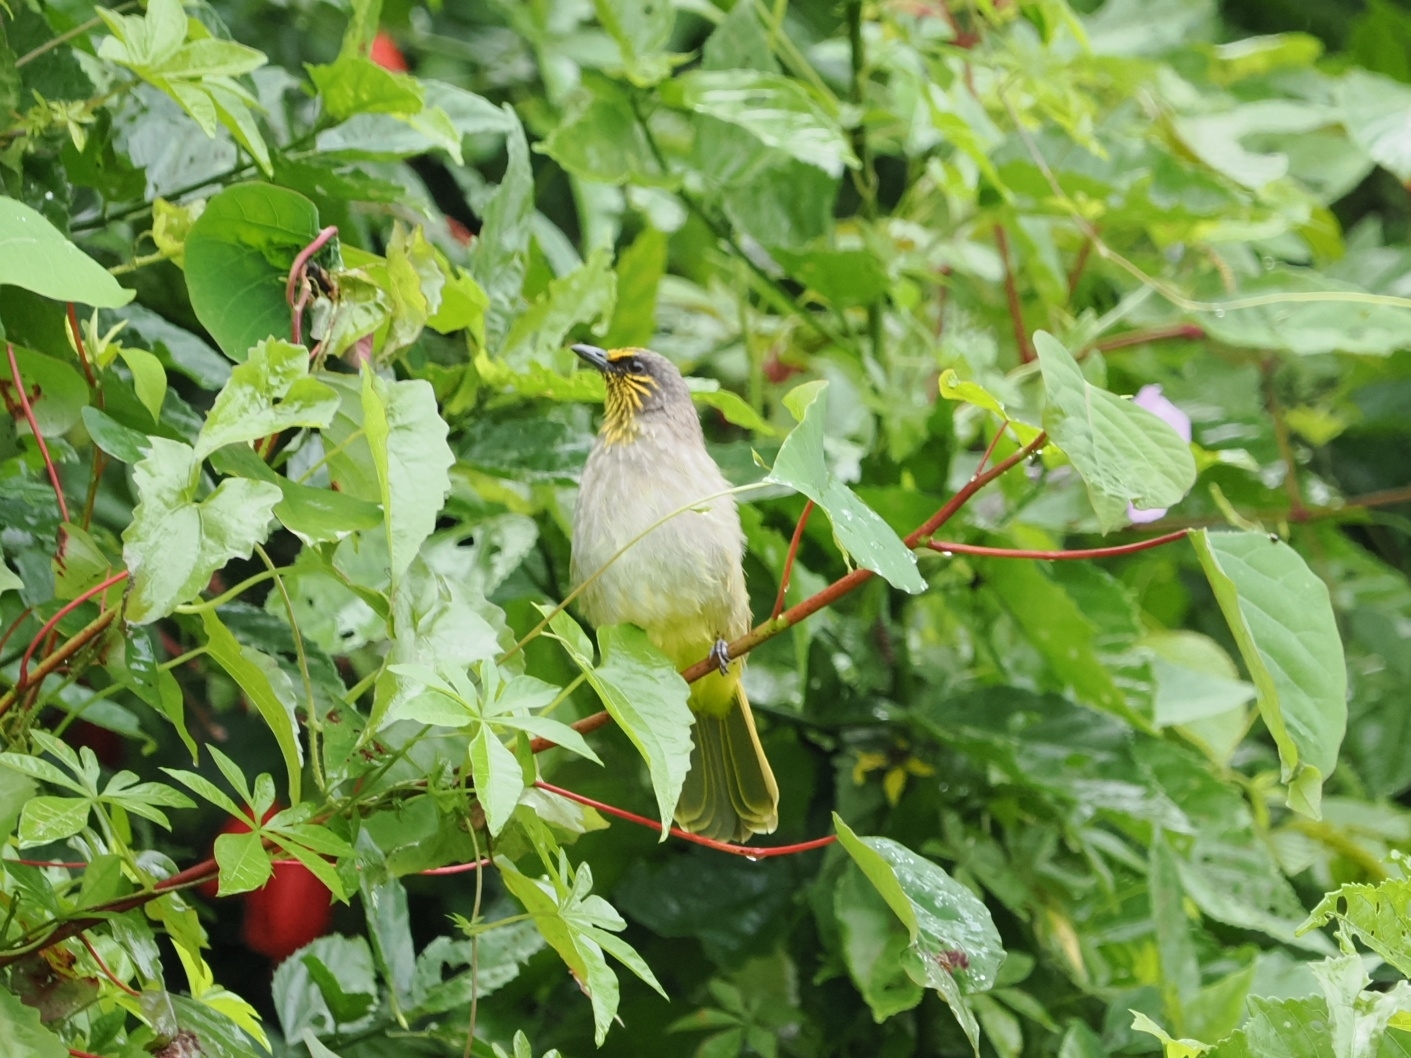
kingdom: Animalia
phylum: Chordata
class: Aves
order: Passeriformes
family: Pycnonotidae
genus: Pycnonotus
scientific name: Pycnonotus finlaysoni
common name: Stripe-throated bulbul
